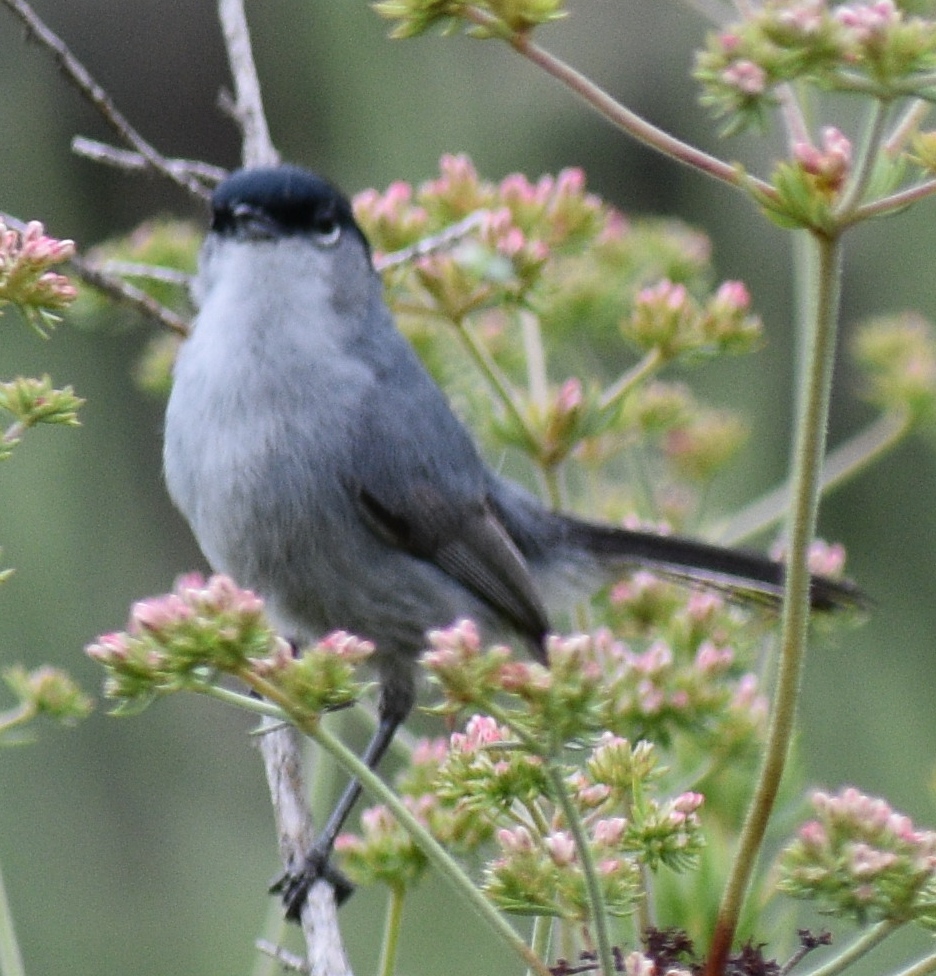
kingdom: Animalia
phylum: Chordata
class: Aves
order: Passeriformes
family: Polioptilidae
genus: Polioptila
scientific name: Polioptila californica
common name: California gnatcatcher
